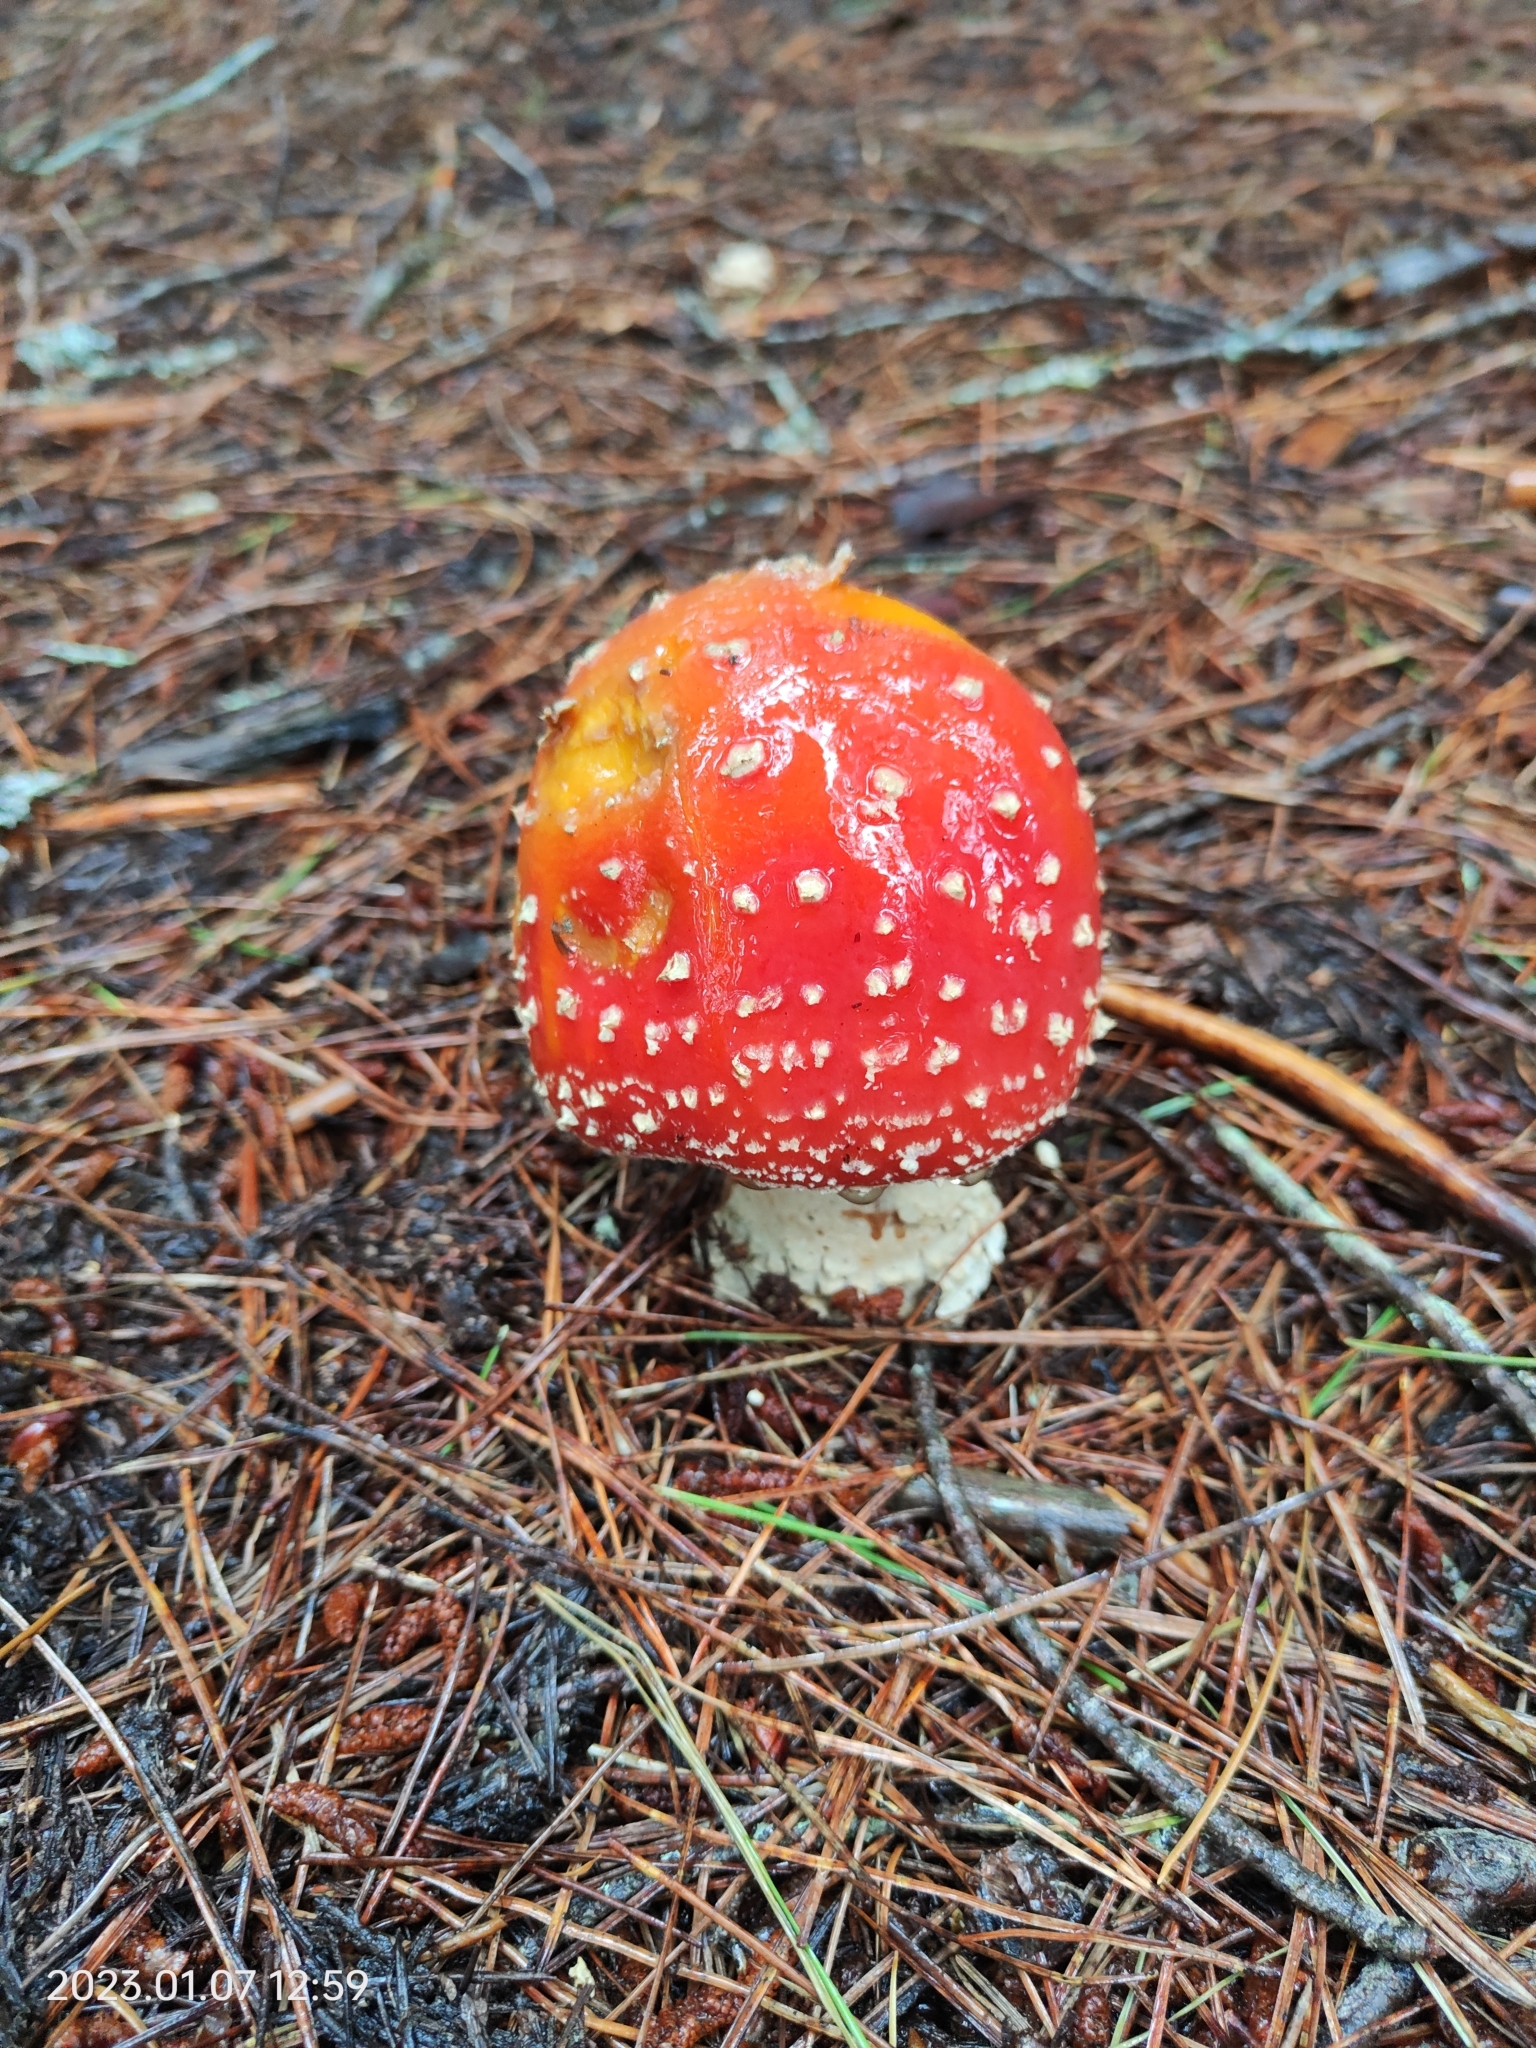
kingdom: Fungi
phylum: Basidiomycota
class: Agaricomycetes
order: Agaricales
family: Amanitaceae
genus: Amanita
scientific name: Amanita muscaria
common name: Fly agaric
